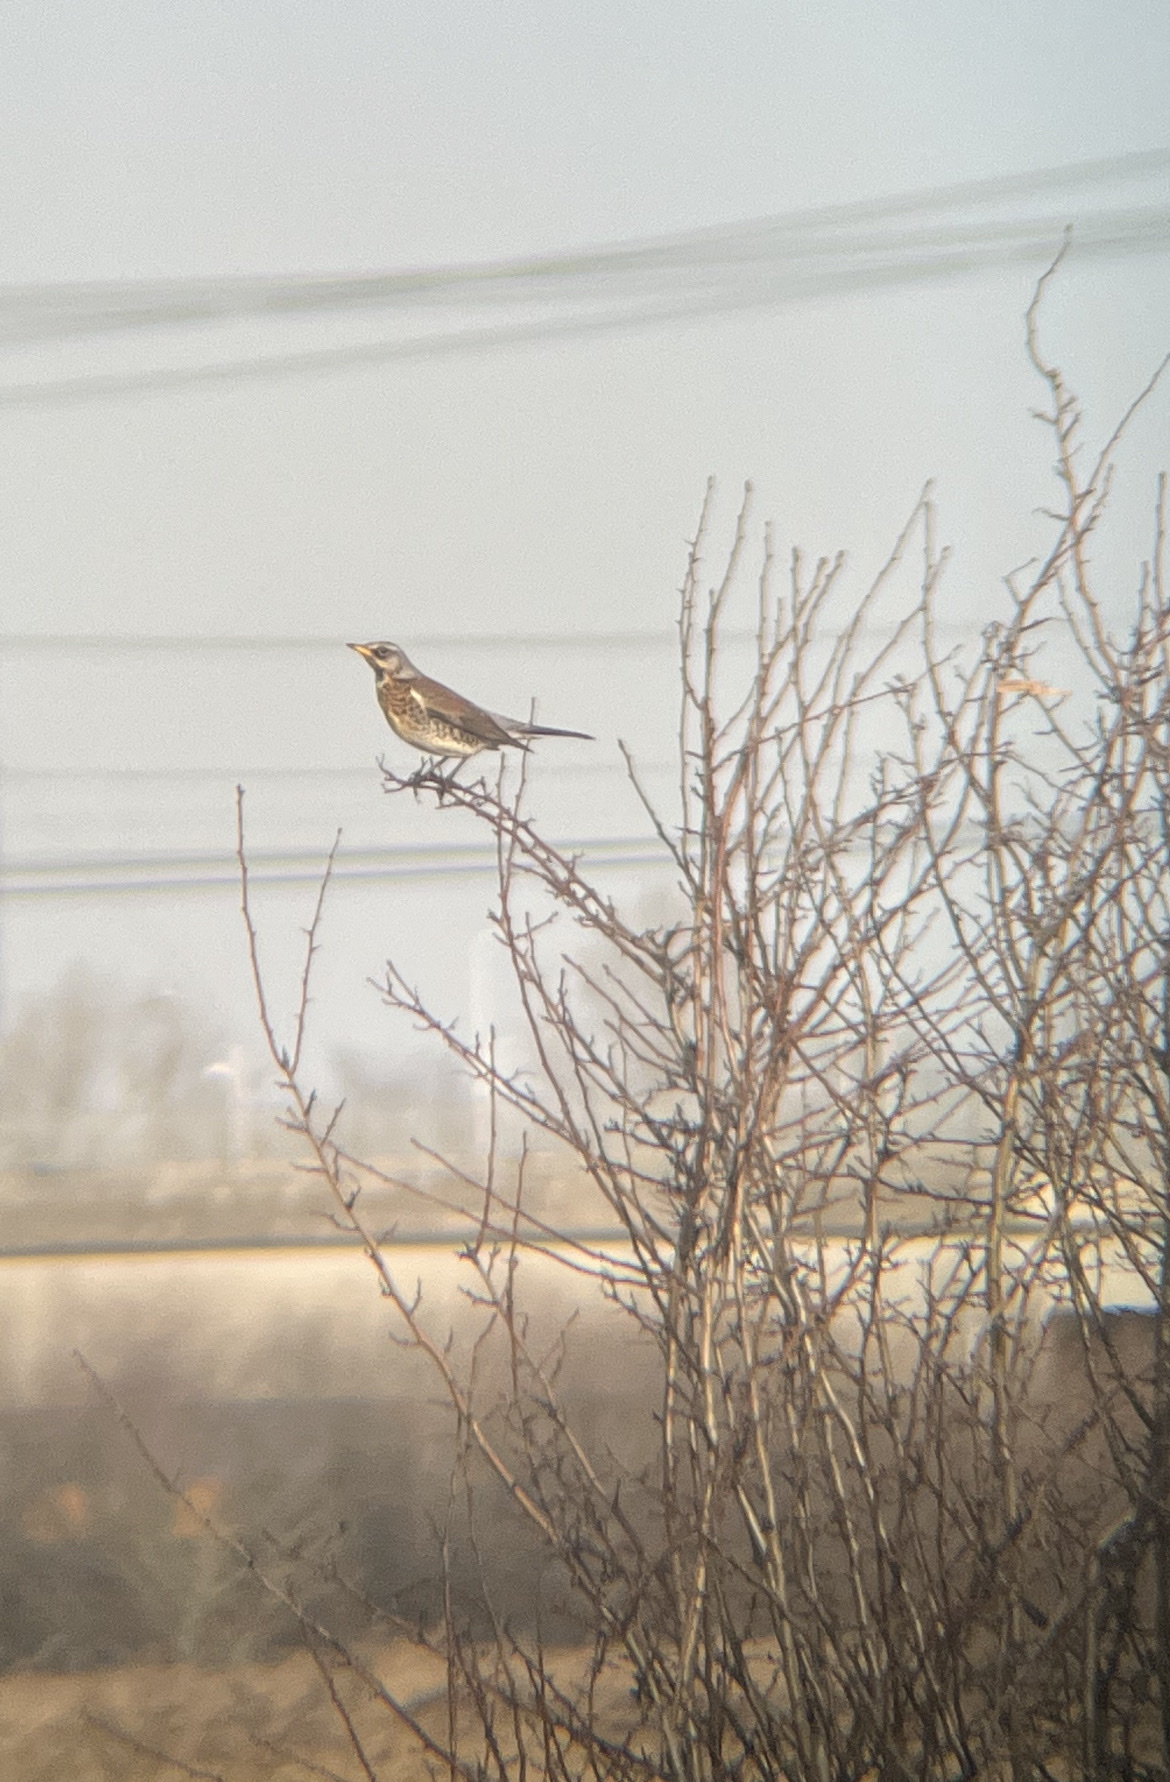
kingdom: Animalia
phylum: Chordata
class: Aves
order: Passeriformes
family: Turdidae
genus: Turdus
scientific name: Turdus pilaris
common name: Fieldfare
